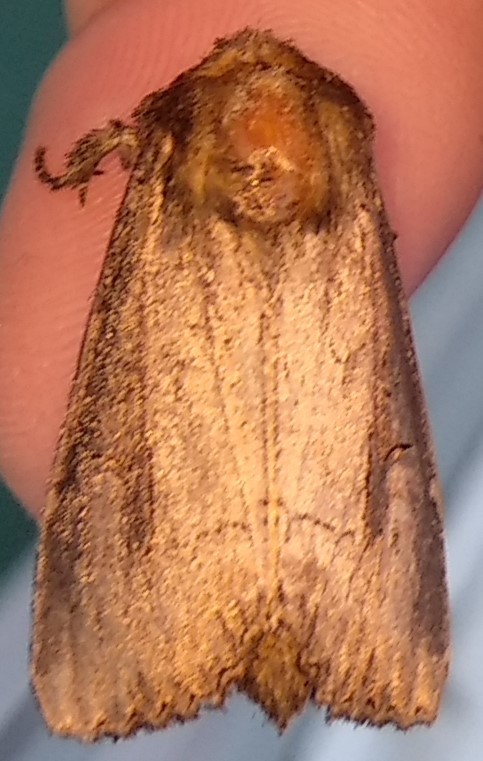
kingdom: Animalia
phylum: Arthropoda
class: Insecta
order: Lepidoptera
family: Noctuidae
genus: Macronoctua
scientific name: Macronoctua onusta
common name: Iris borer
